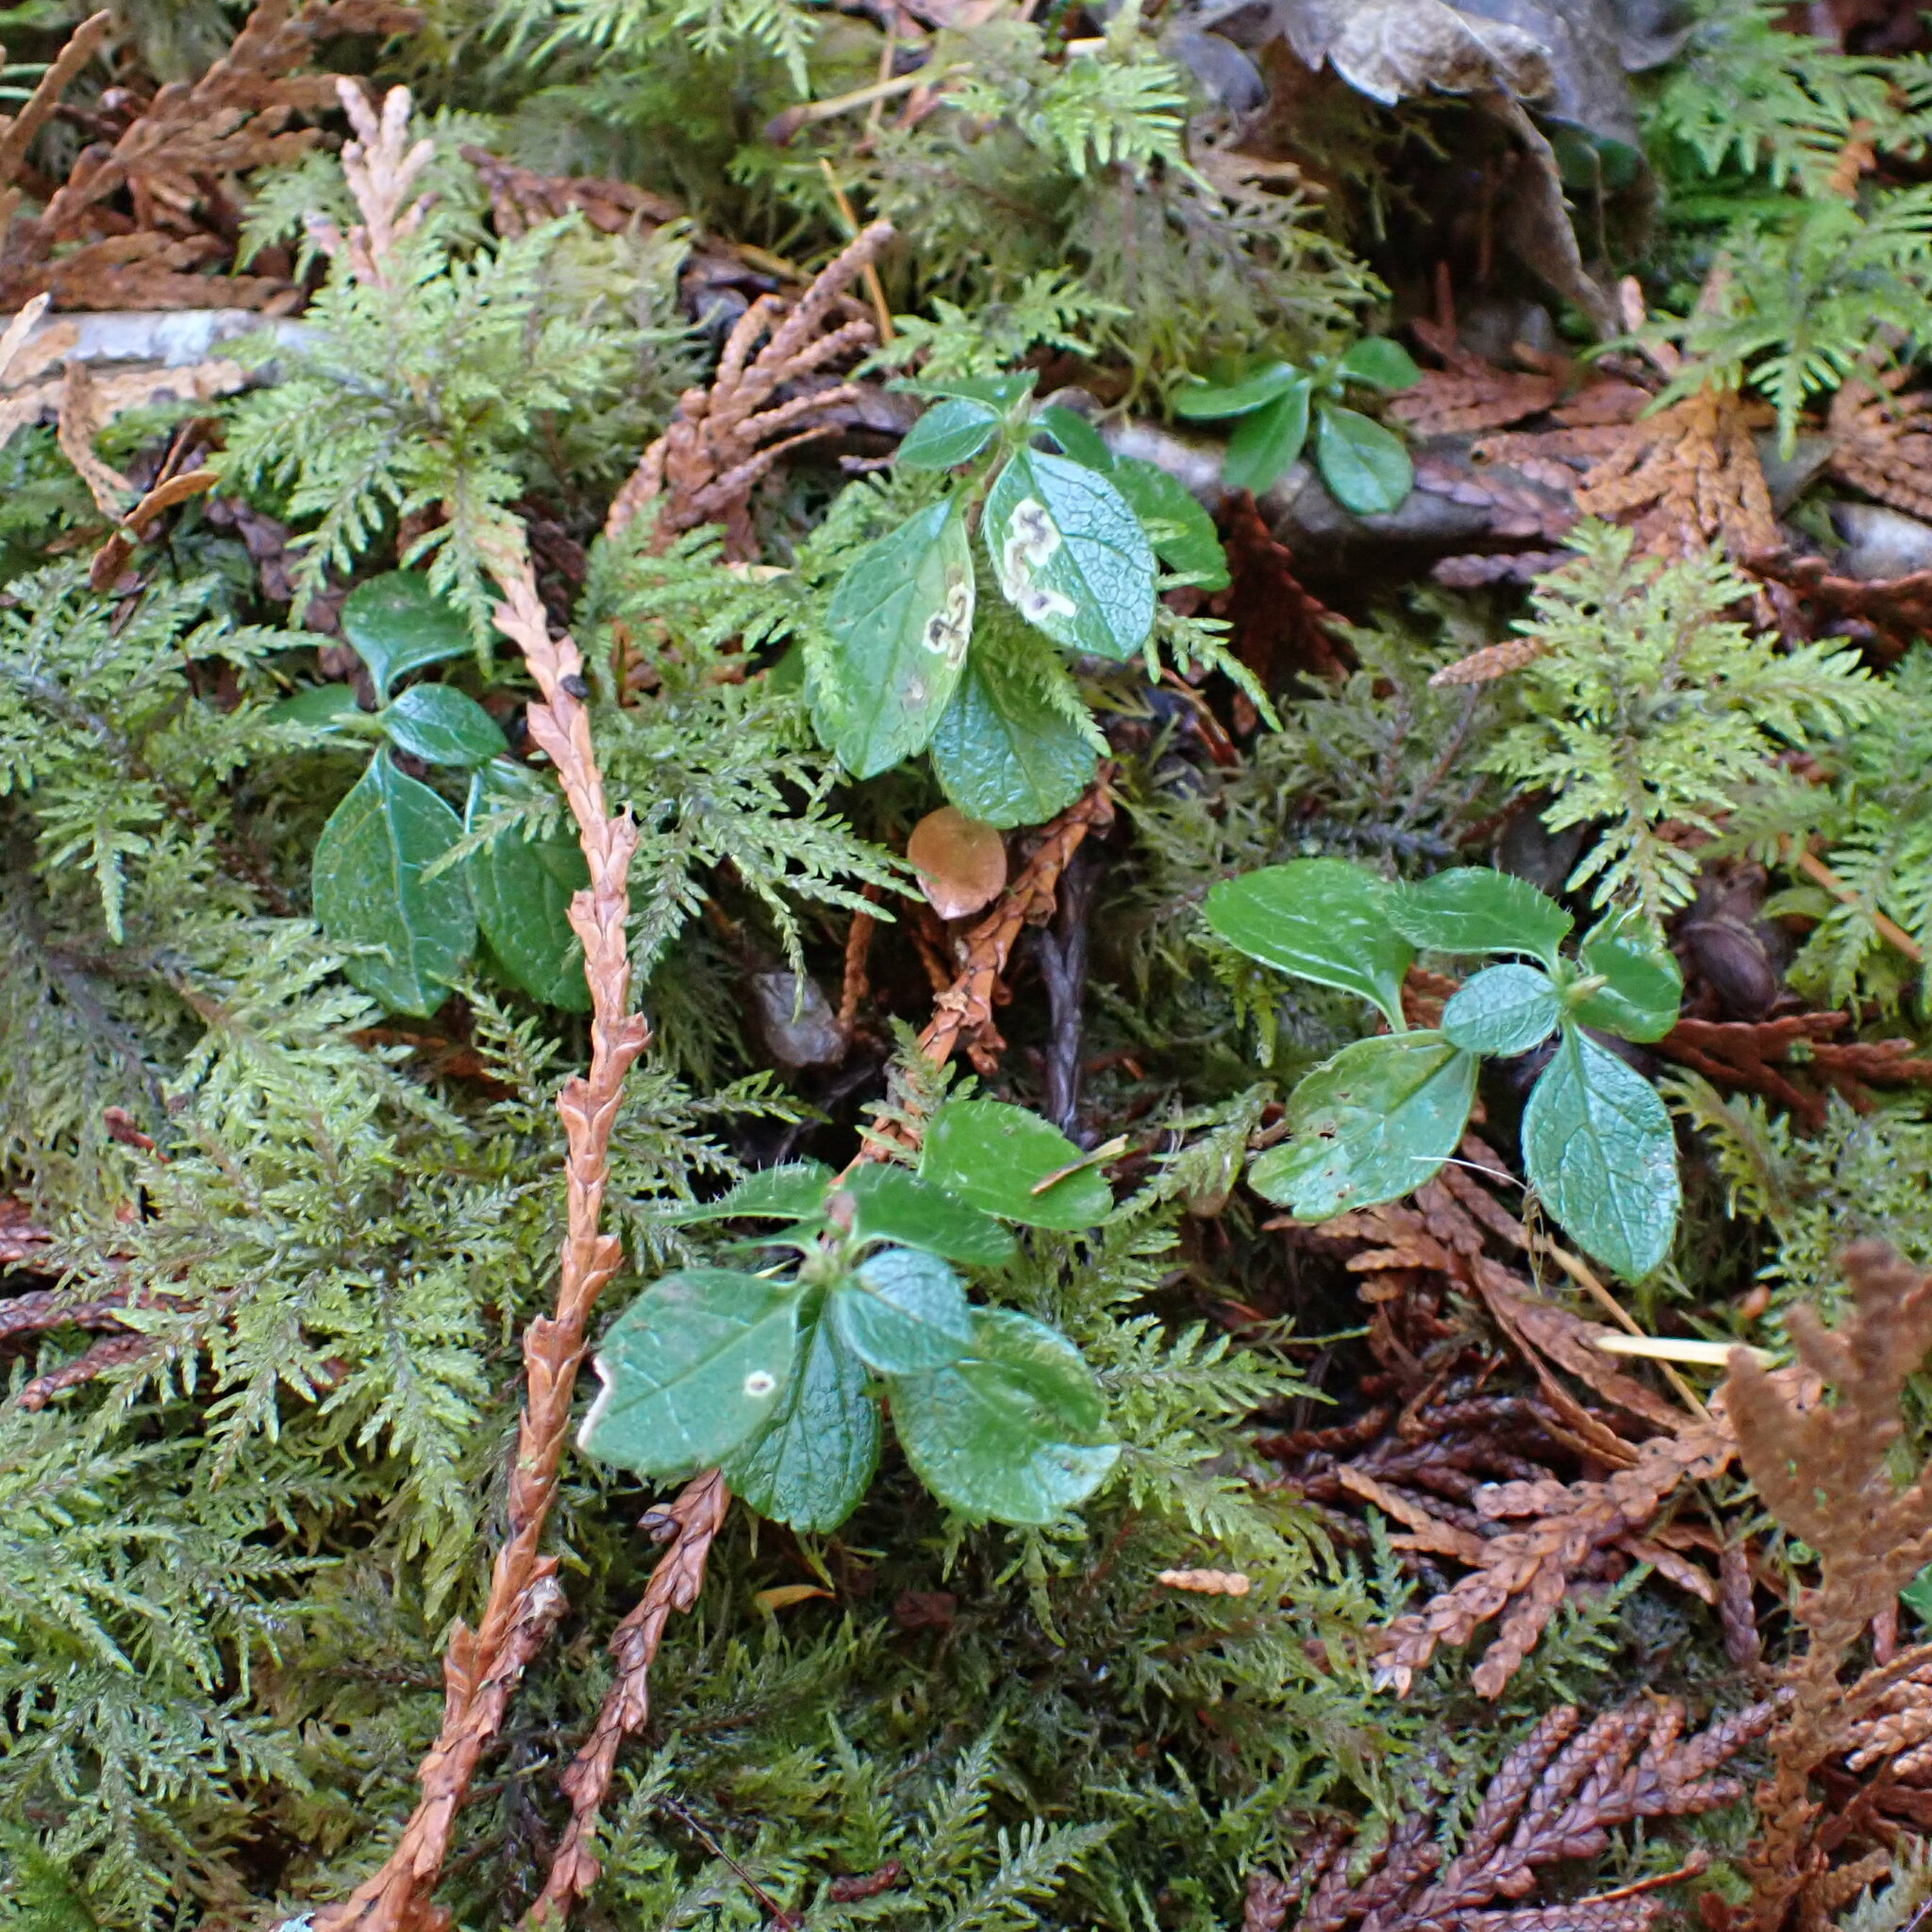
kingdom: Plantae
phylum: Tracheophyta
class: Magnoliopsida
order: Dipsacales
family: Caprifoliaceae
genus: Linnaea
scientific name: Linnaea borealis
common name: Twinflower
